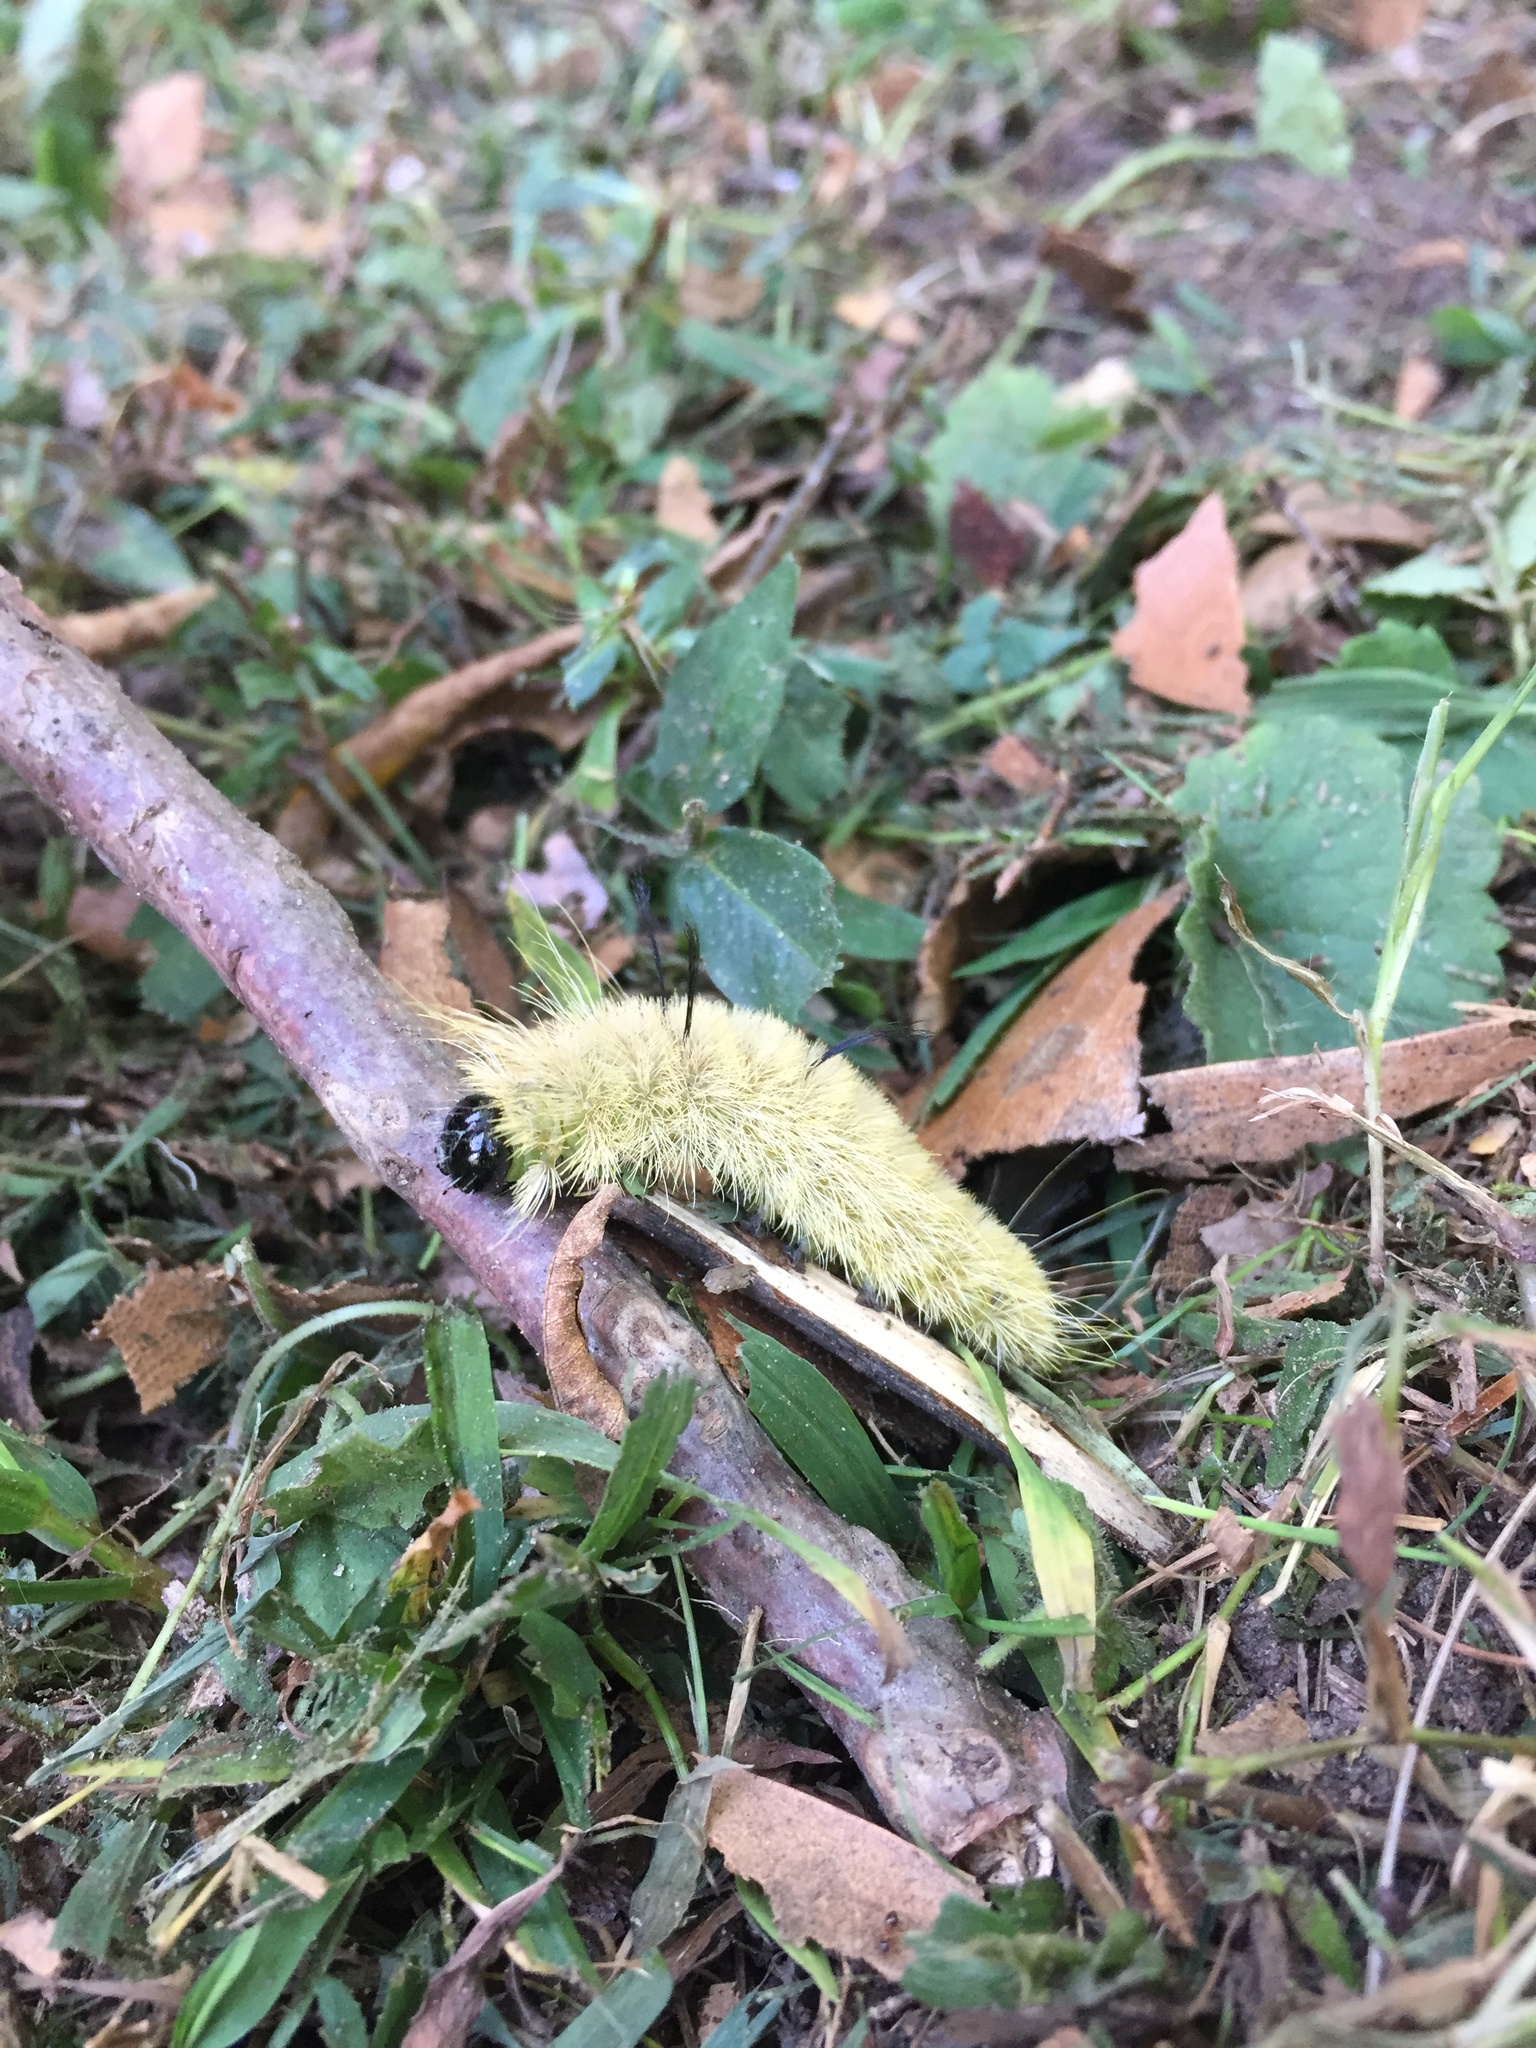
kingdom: Animalia
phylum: Arthropoda
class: Insecta
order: Lepidoptera
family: Noctuidae
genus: Acronicta
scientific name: Acronicta americana
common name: American dagger
